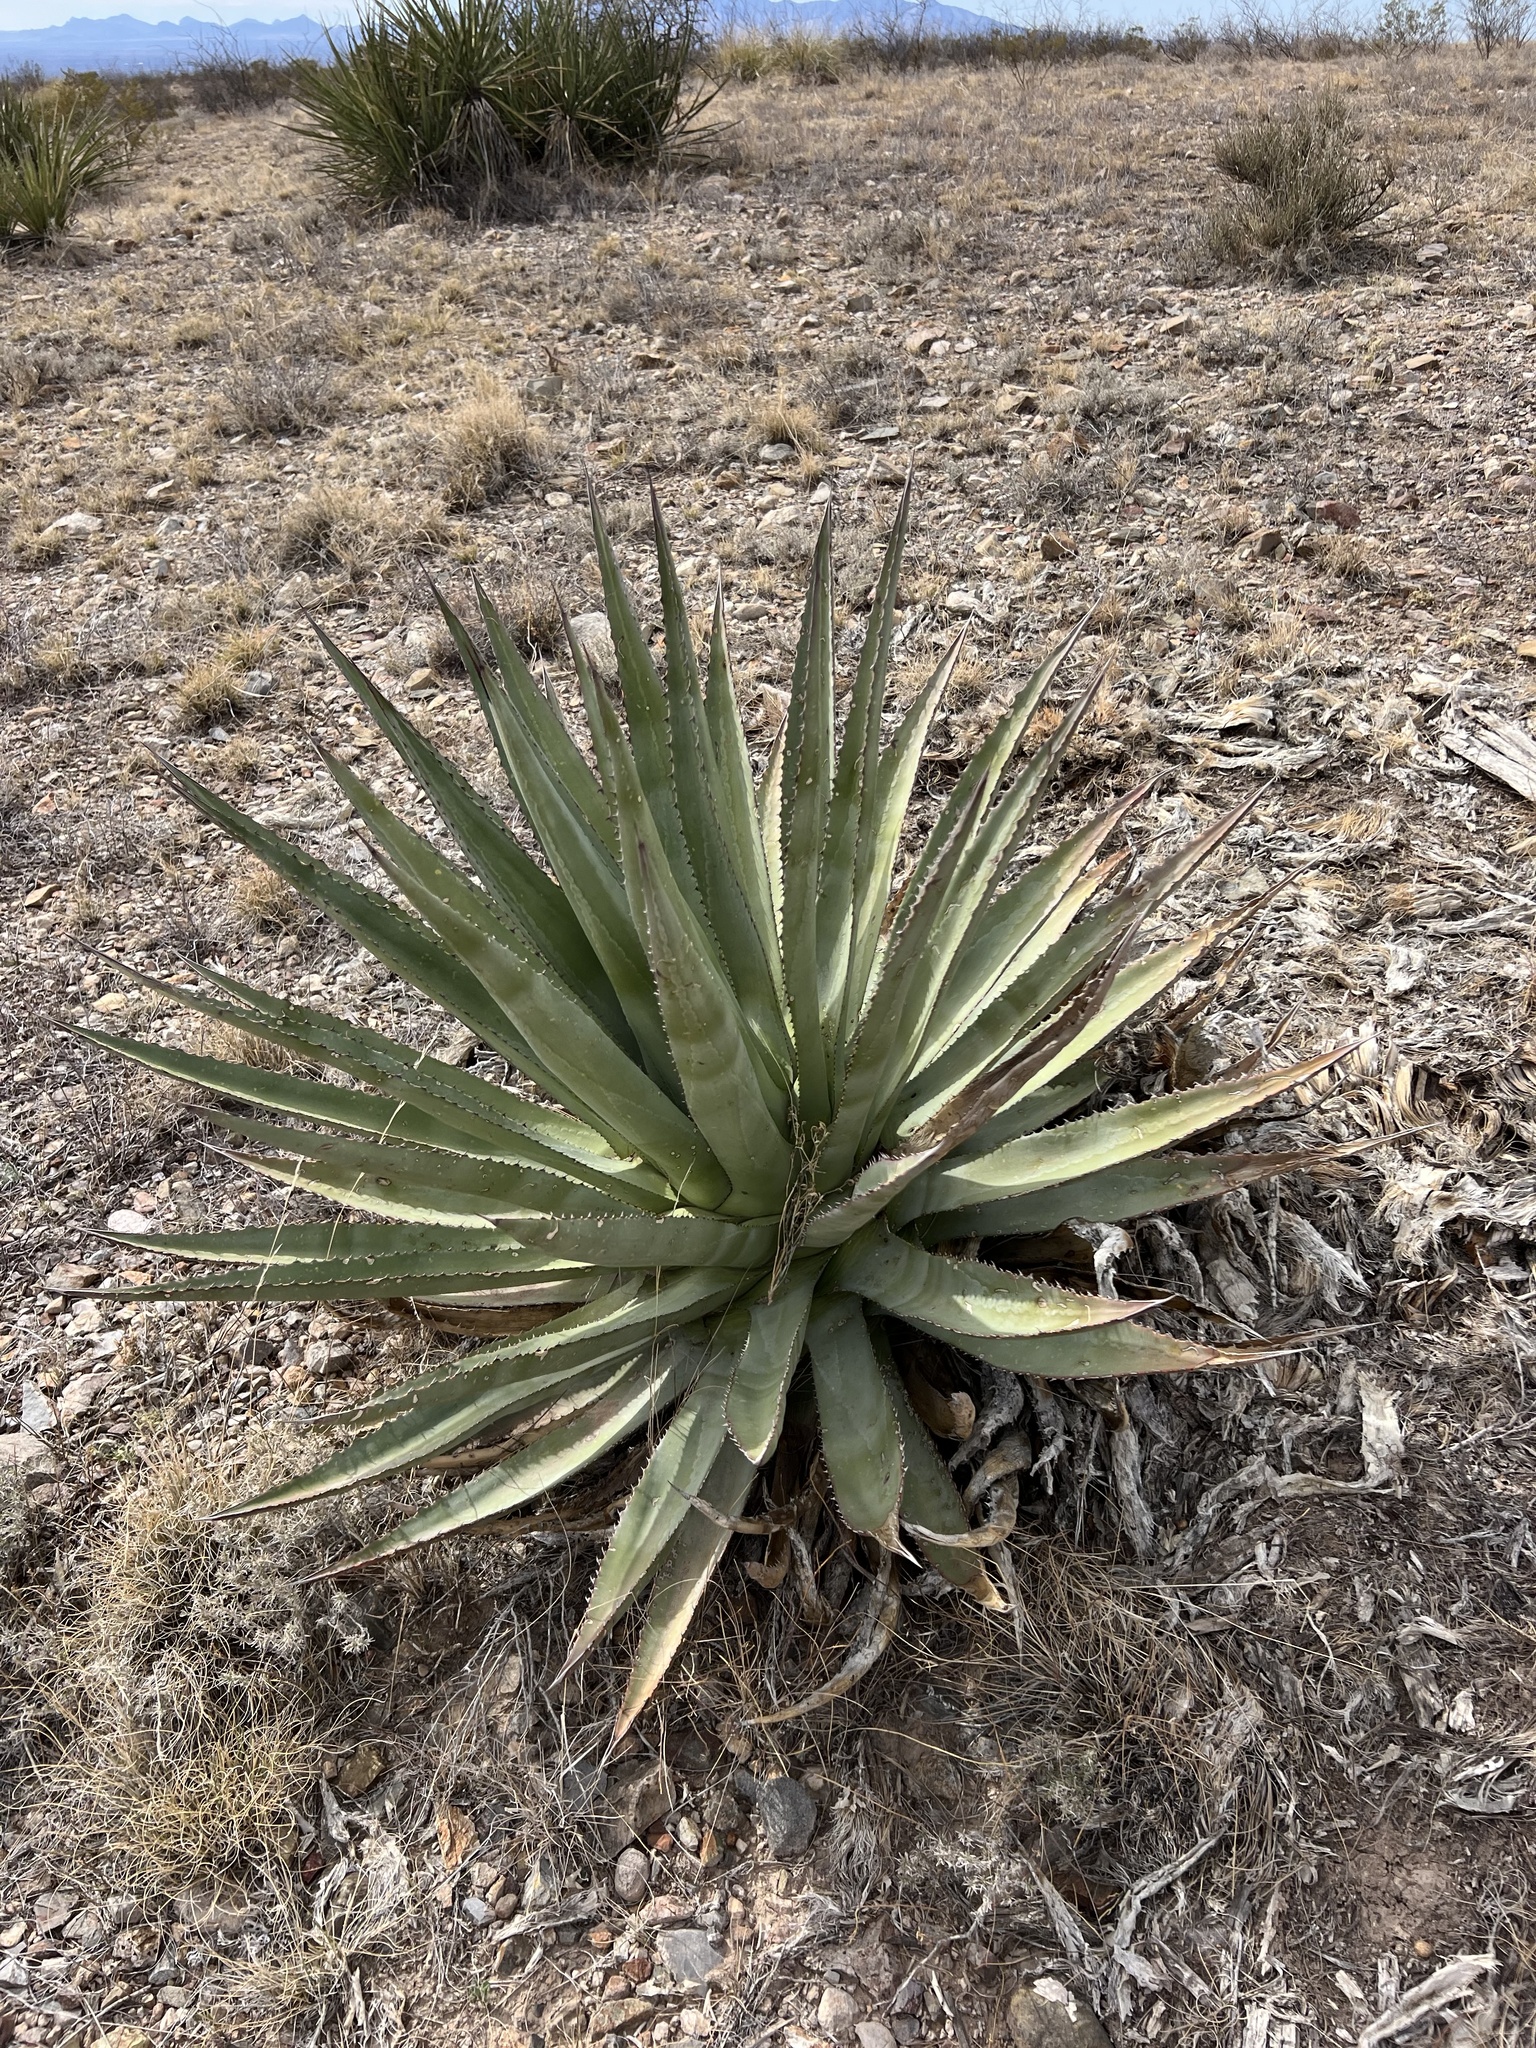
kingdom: Plantae
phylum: Tracheophyta
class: Liliopsida
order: Asparagales
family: Asparagaceae
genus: Agave
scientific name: Agave palmeri
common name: Palmer agave
